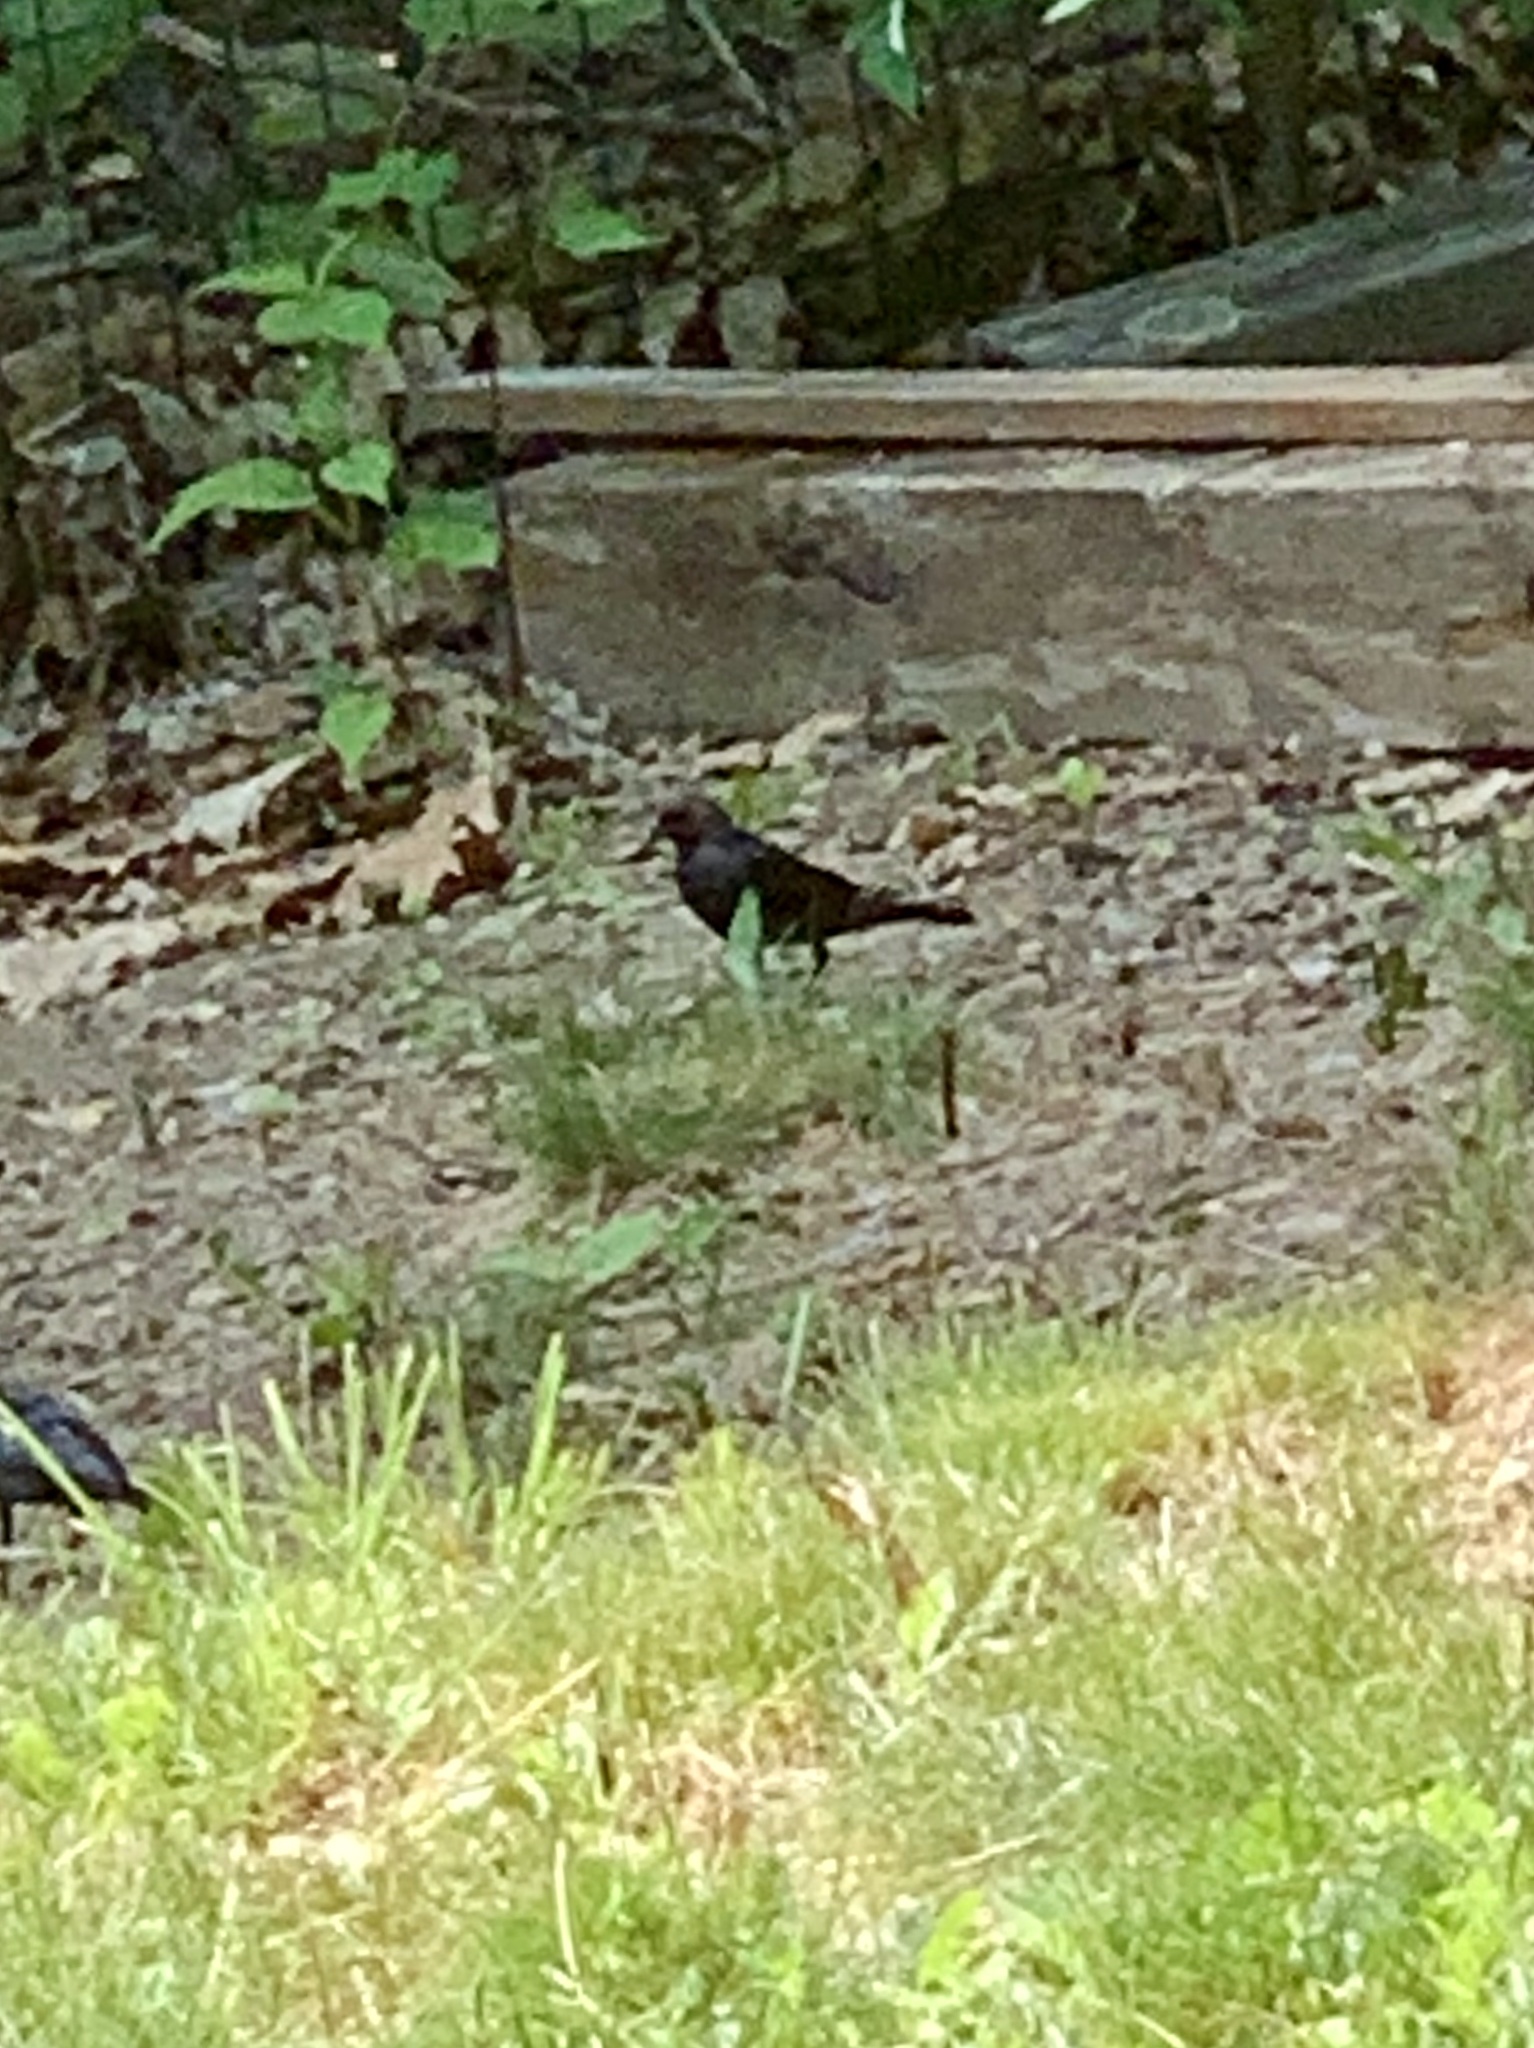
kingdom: Animalia
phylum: Chordata
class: Aves
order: Passeriformes
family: Icteridae
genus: Molothrus
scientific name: Molothrus ater
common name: Brown-headed cowbird
